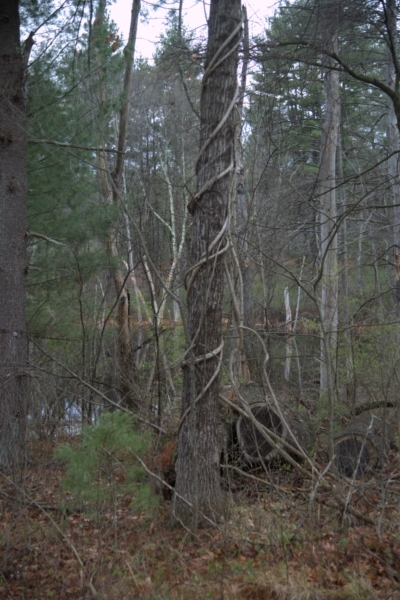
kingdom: Plantae
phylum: Tracheophyta
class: Magnoliopsida
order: Celastrales
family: Celastraceae
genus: Celastrus
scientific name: Celastrus orbiculatus
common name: Oriental bittersweet
